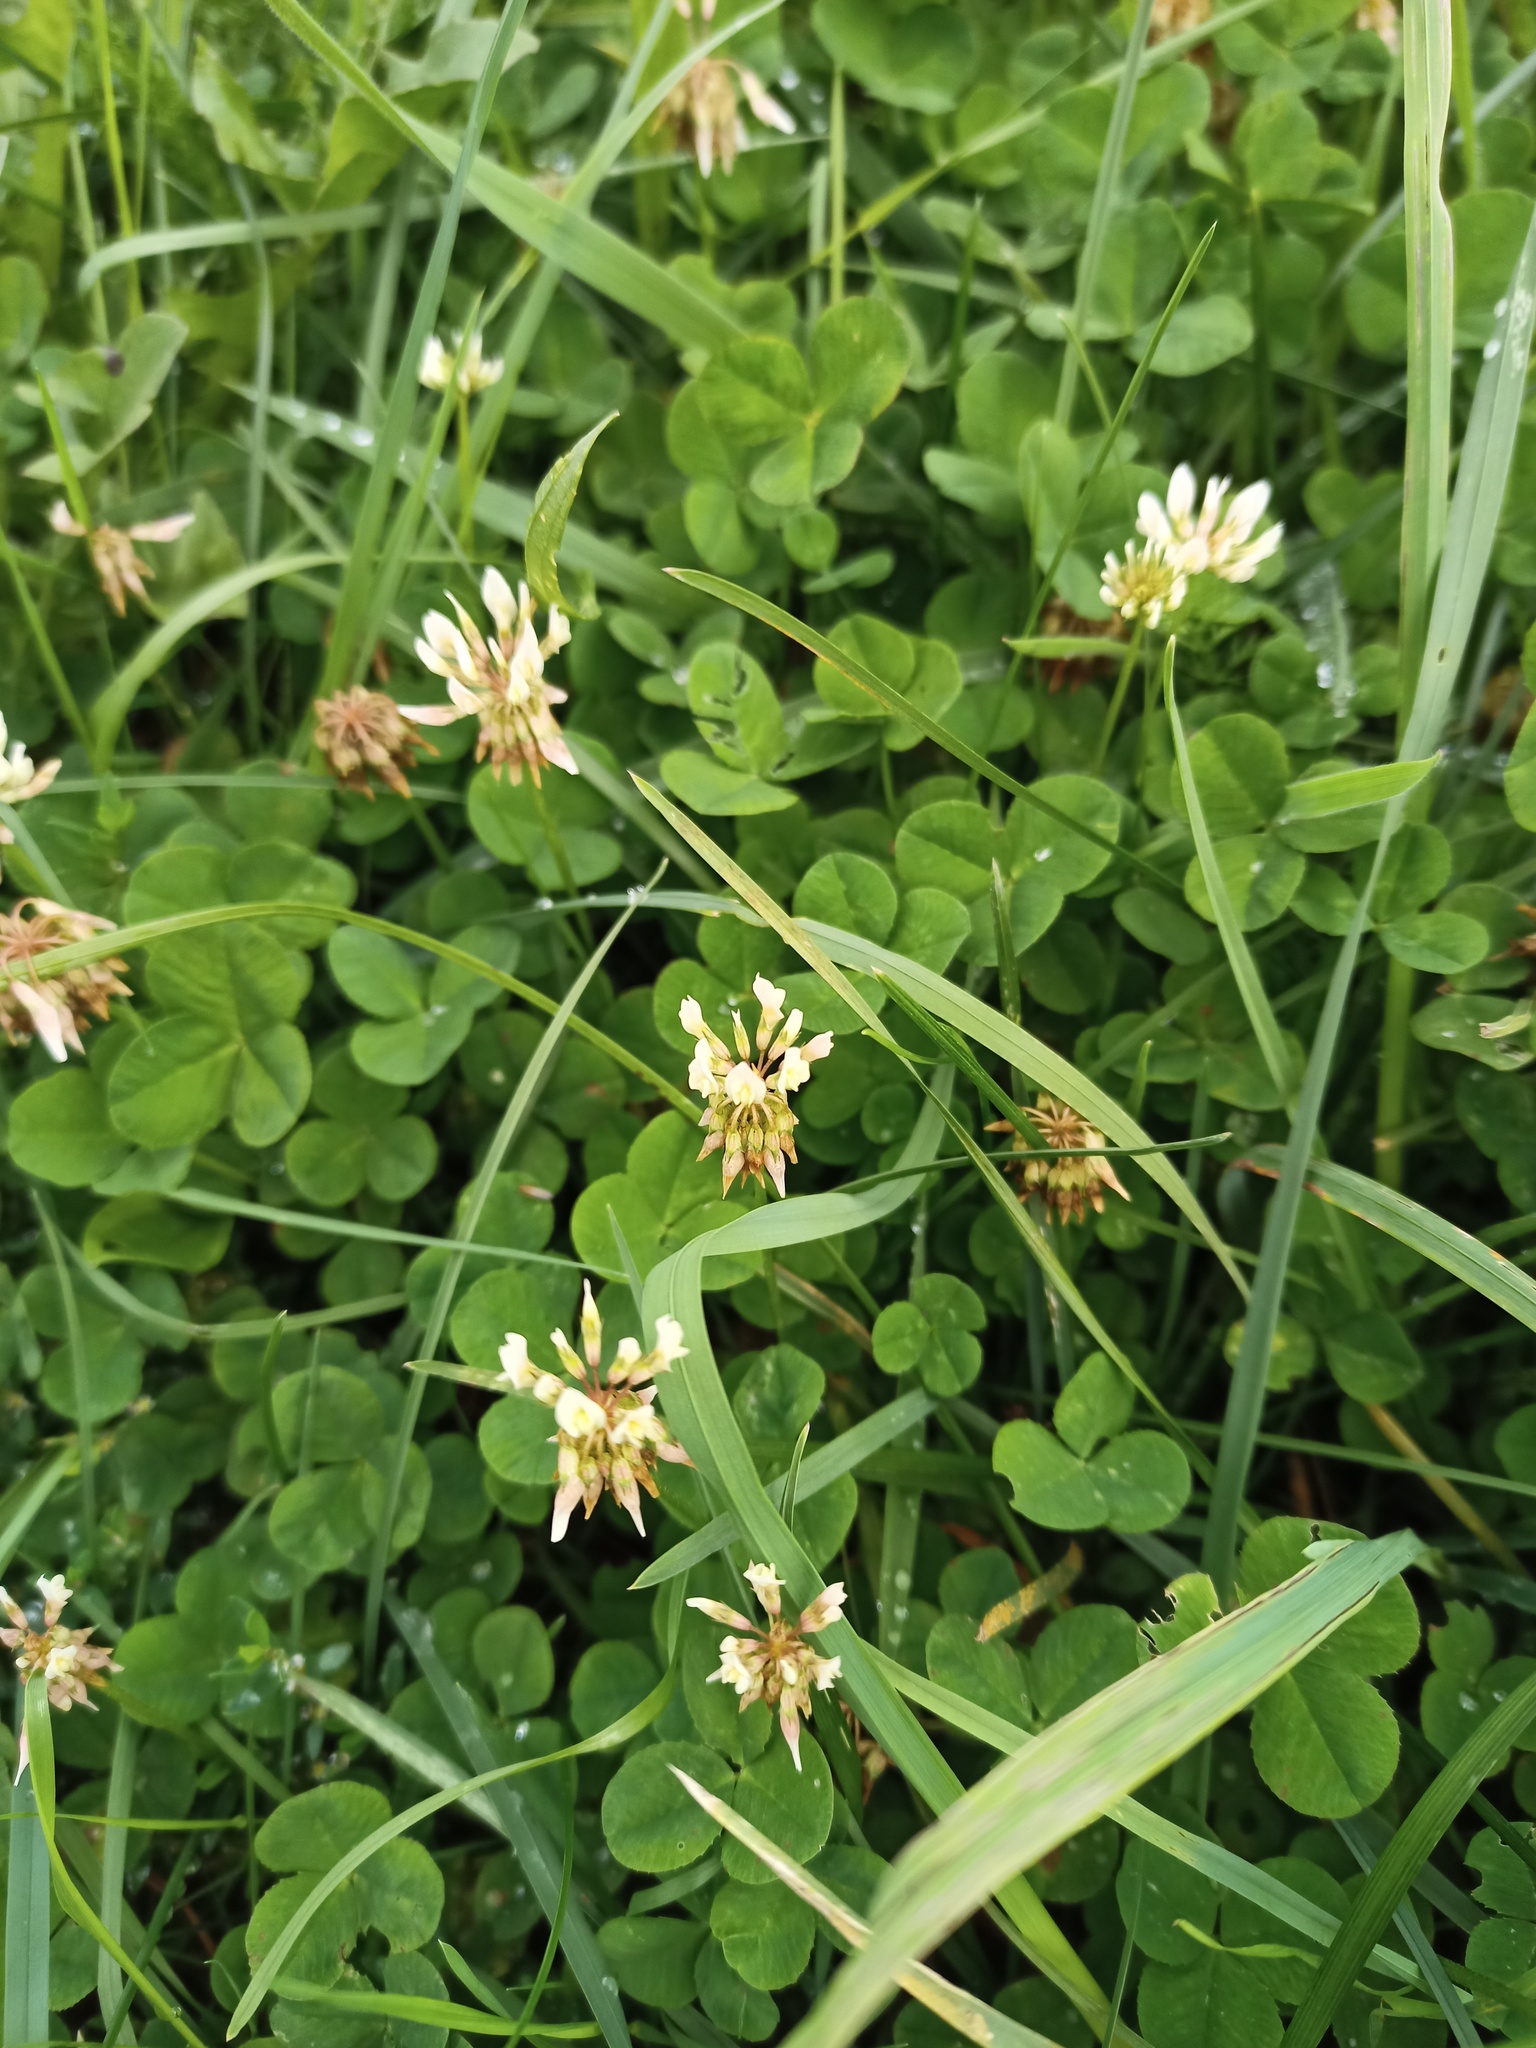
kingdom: Plantae
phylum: Tracheophyta
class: Magnoliopsida
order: Fabales
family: Fabaceae
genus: Trifolium
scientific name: Trifolium repens
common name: White clover
